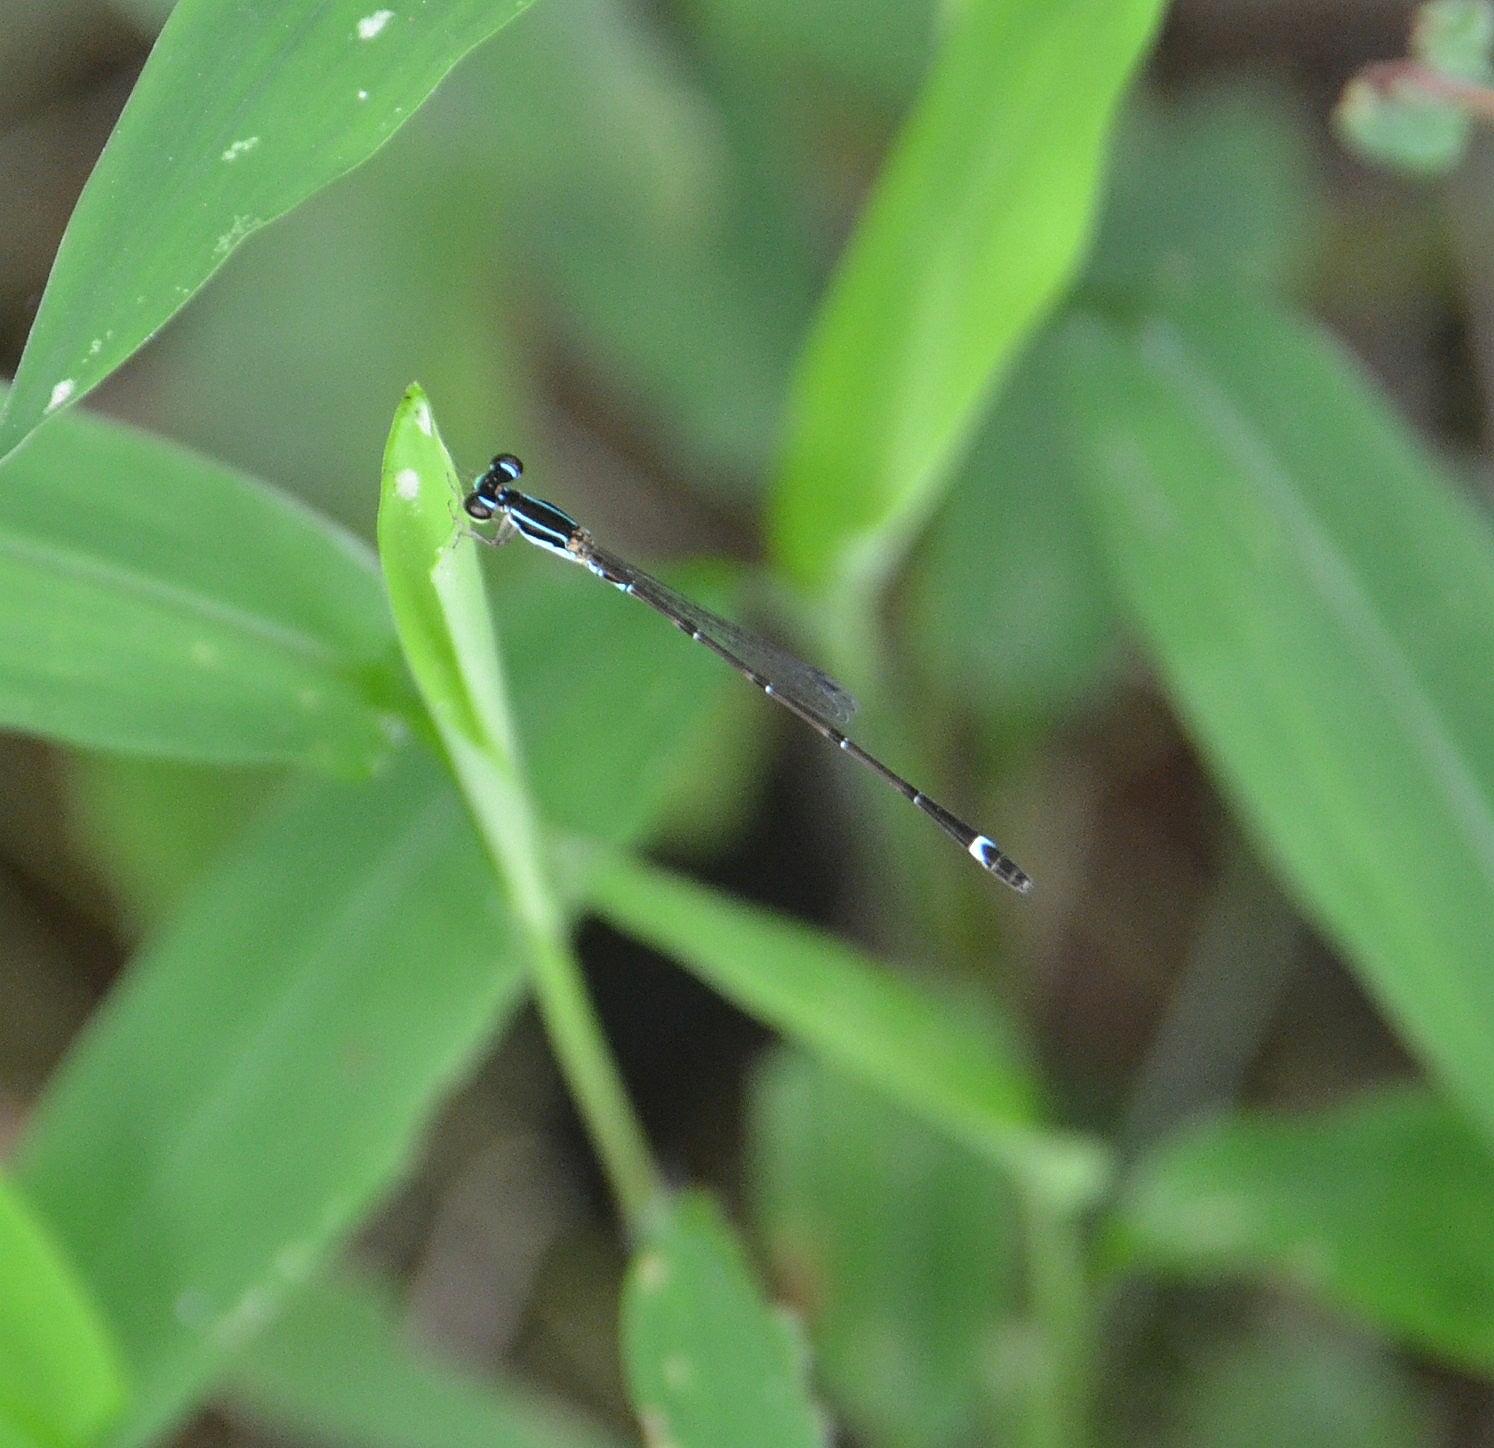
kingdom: Animalia
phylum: Arthropoda
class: Insecta
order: Odonata
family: Coenagrionidae
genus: Mortonagrion
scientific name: Mortonagrion varralli
